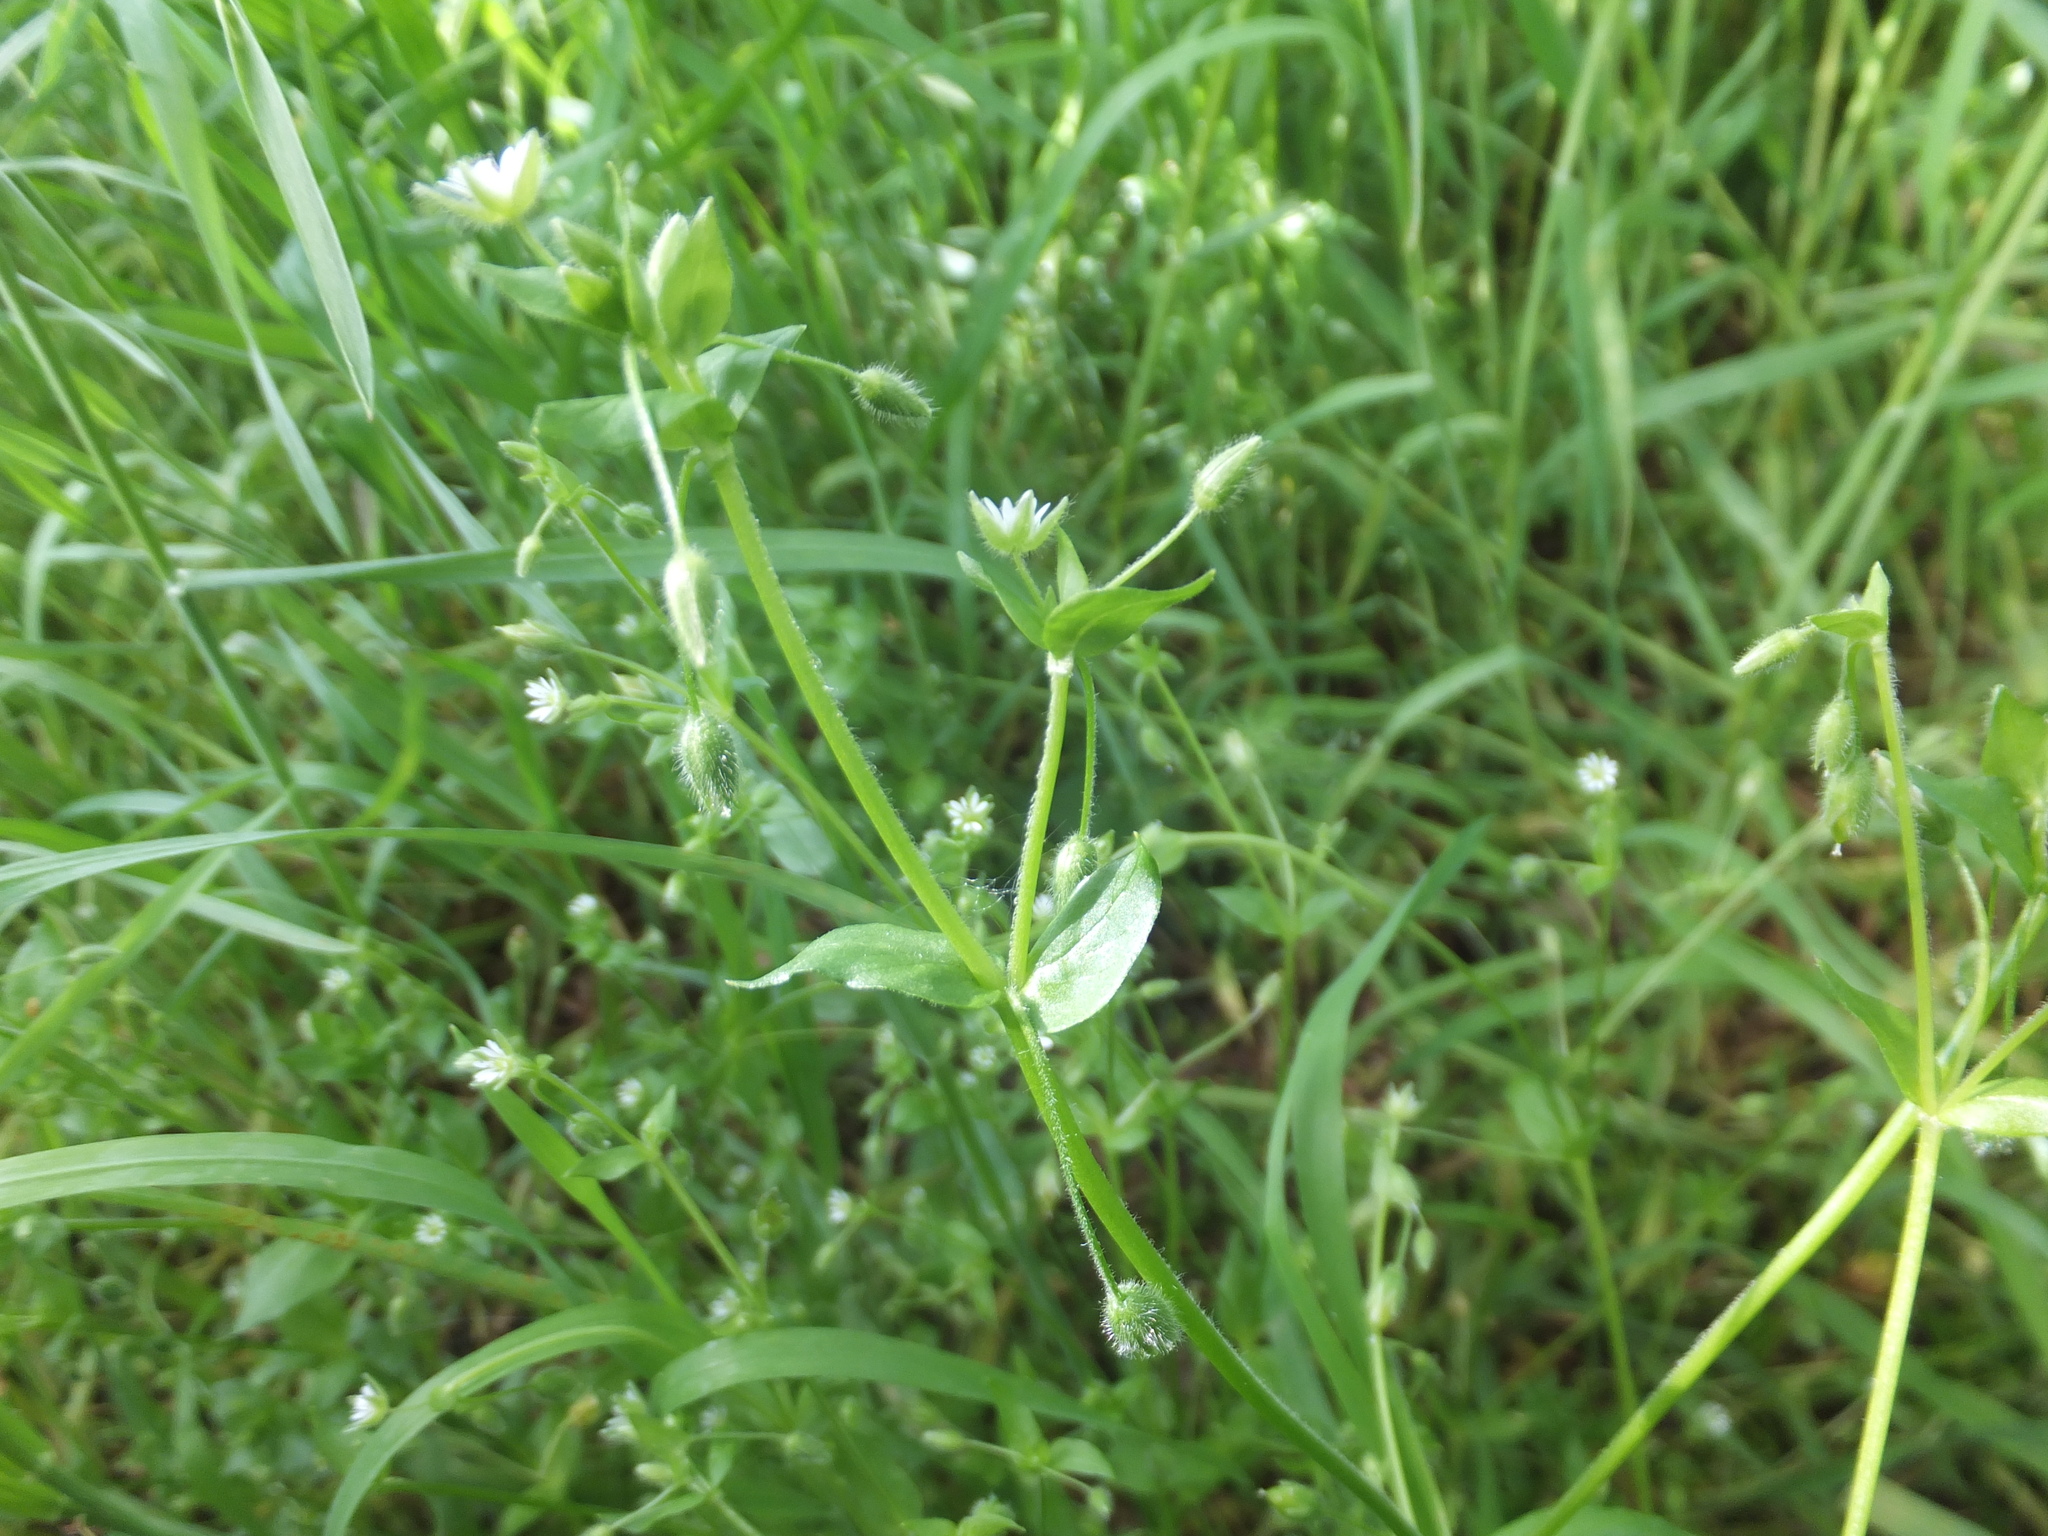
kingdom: Plantae
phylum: Tracheophyta
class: Magnoliopsida
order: Caryophyllales
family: Caryophyllaceae
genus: Stellaria
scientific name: Stellaria media
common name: Common chickweed
